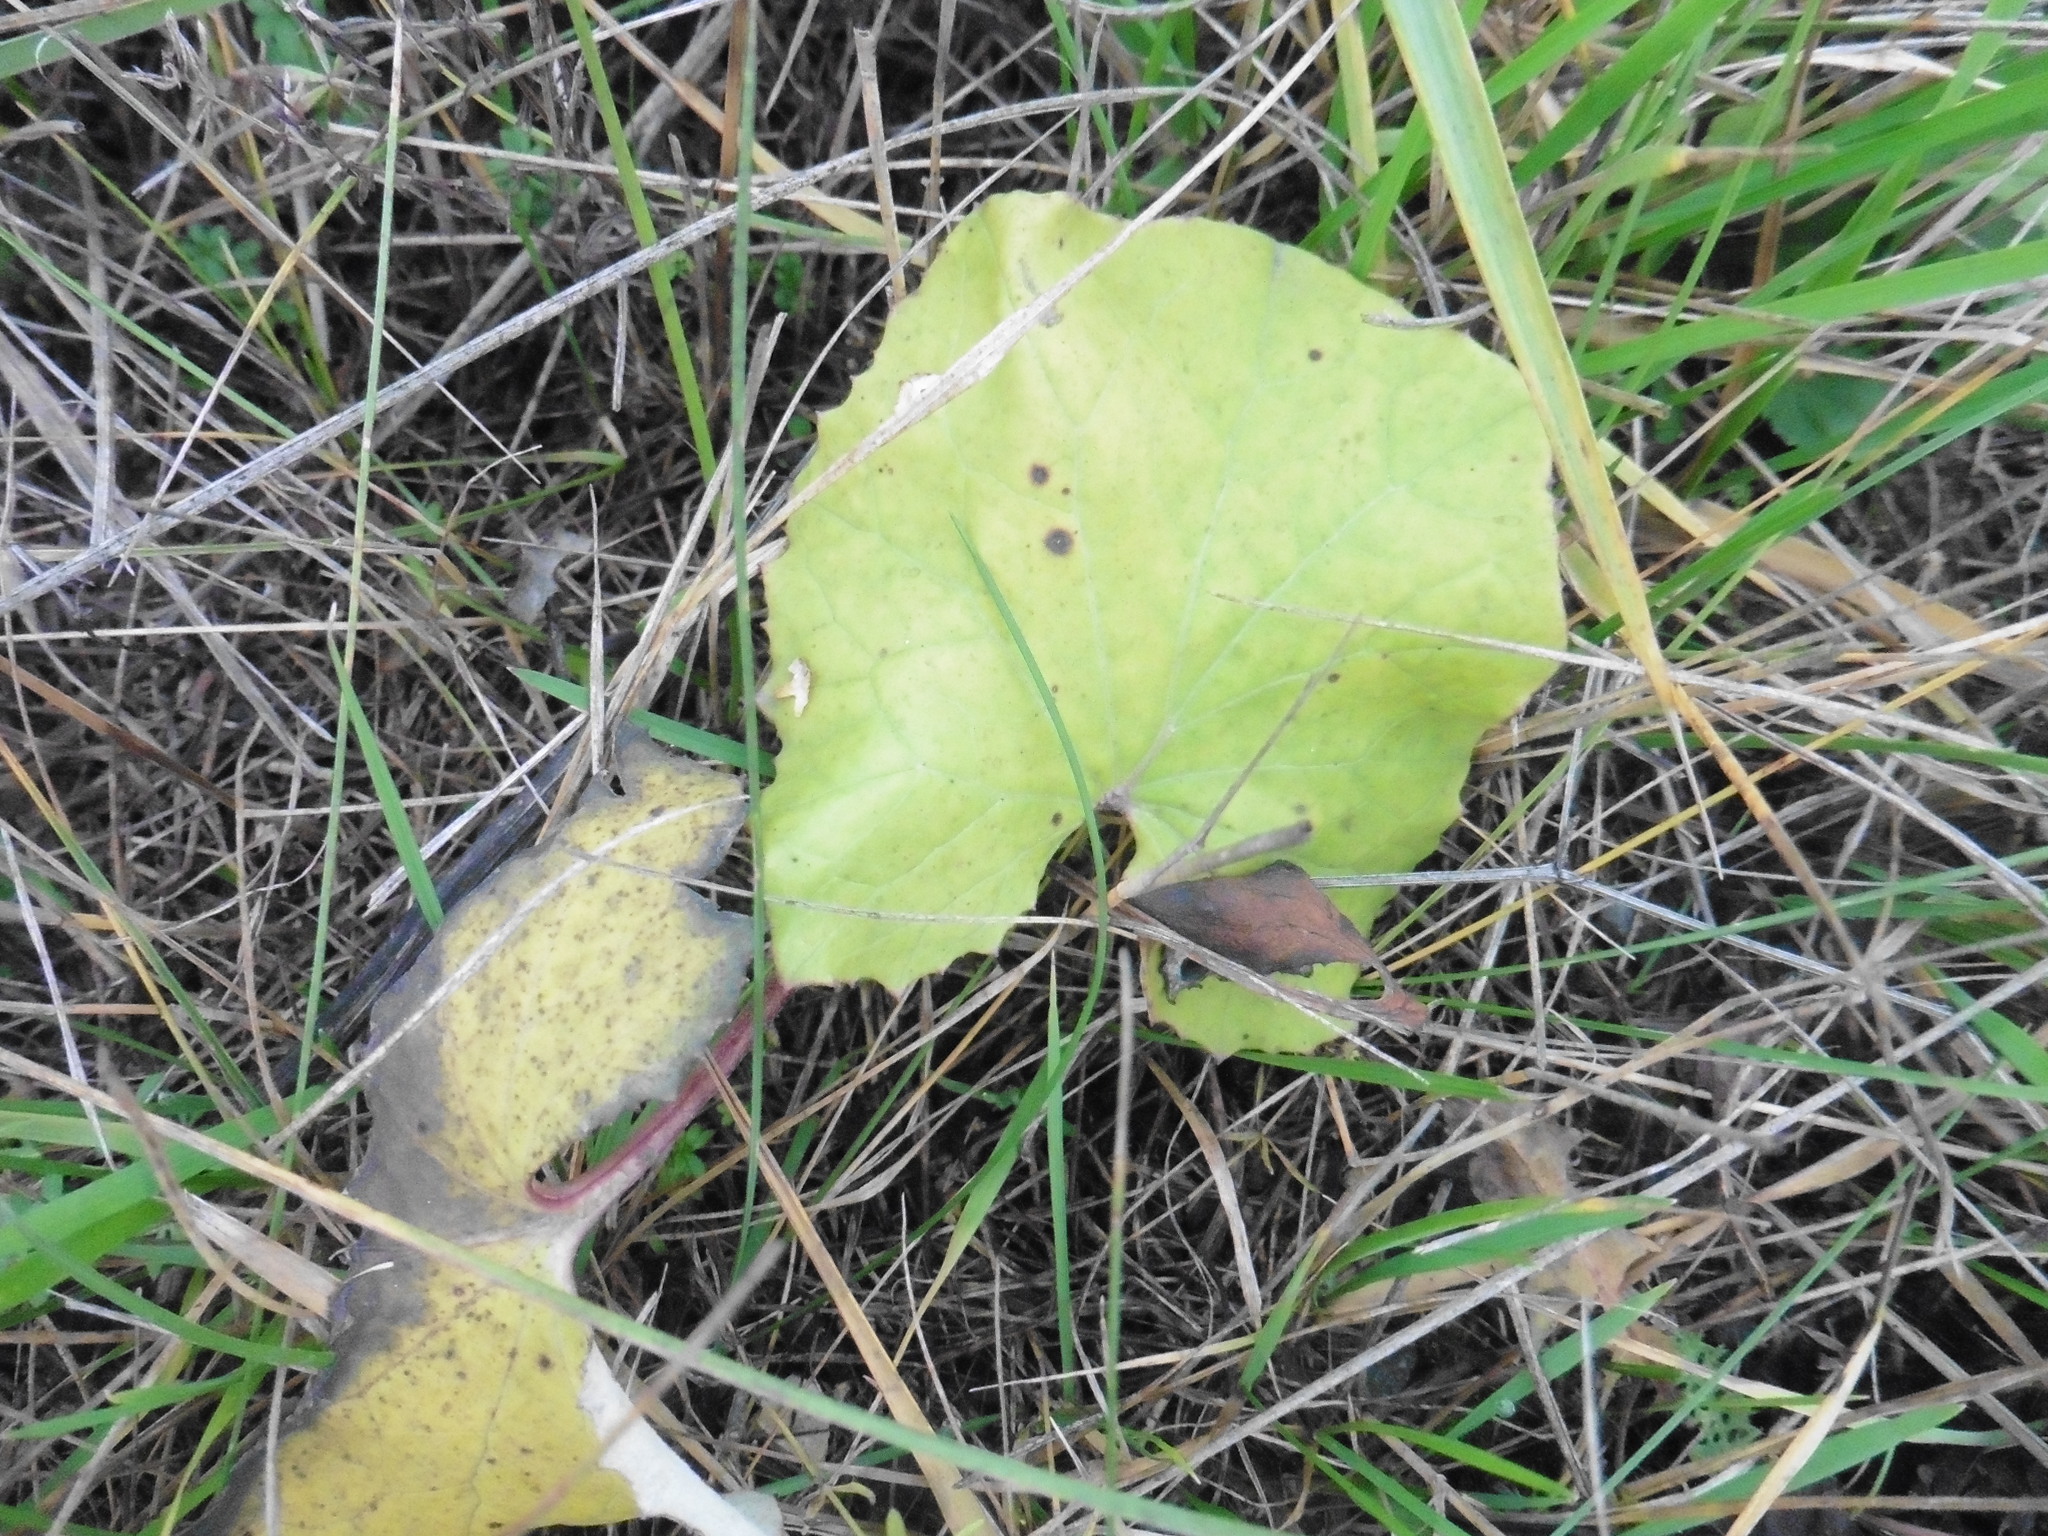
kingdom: Plantae
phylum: Tracheophyta
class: Magnoliopsida
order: Asterales
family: Asteraceae
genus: Tussilago
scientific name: Tussilago farfara
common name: Coltsfoot
